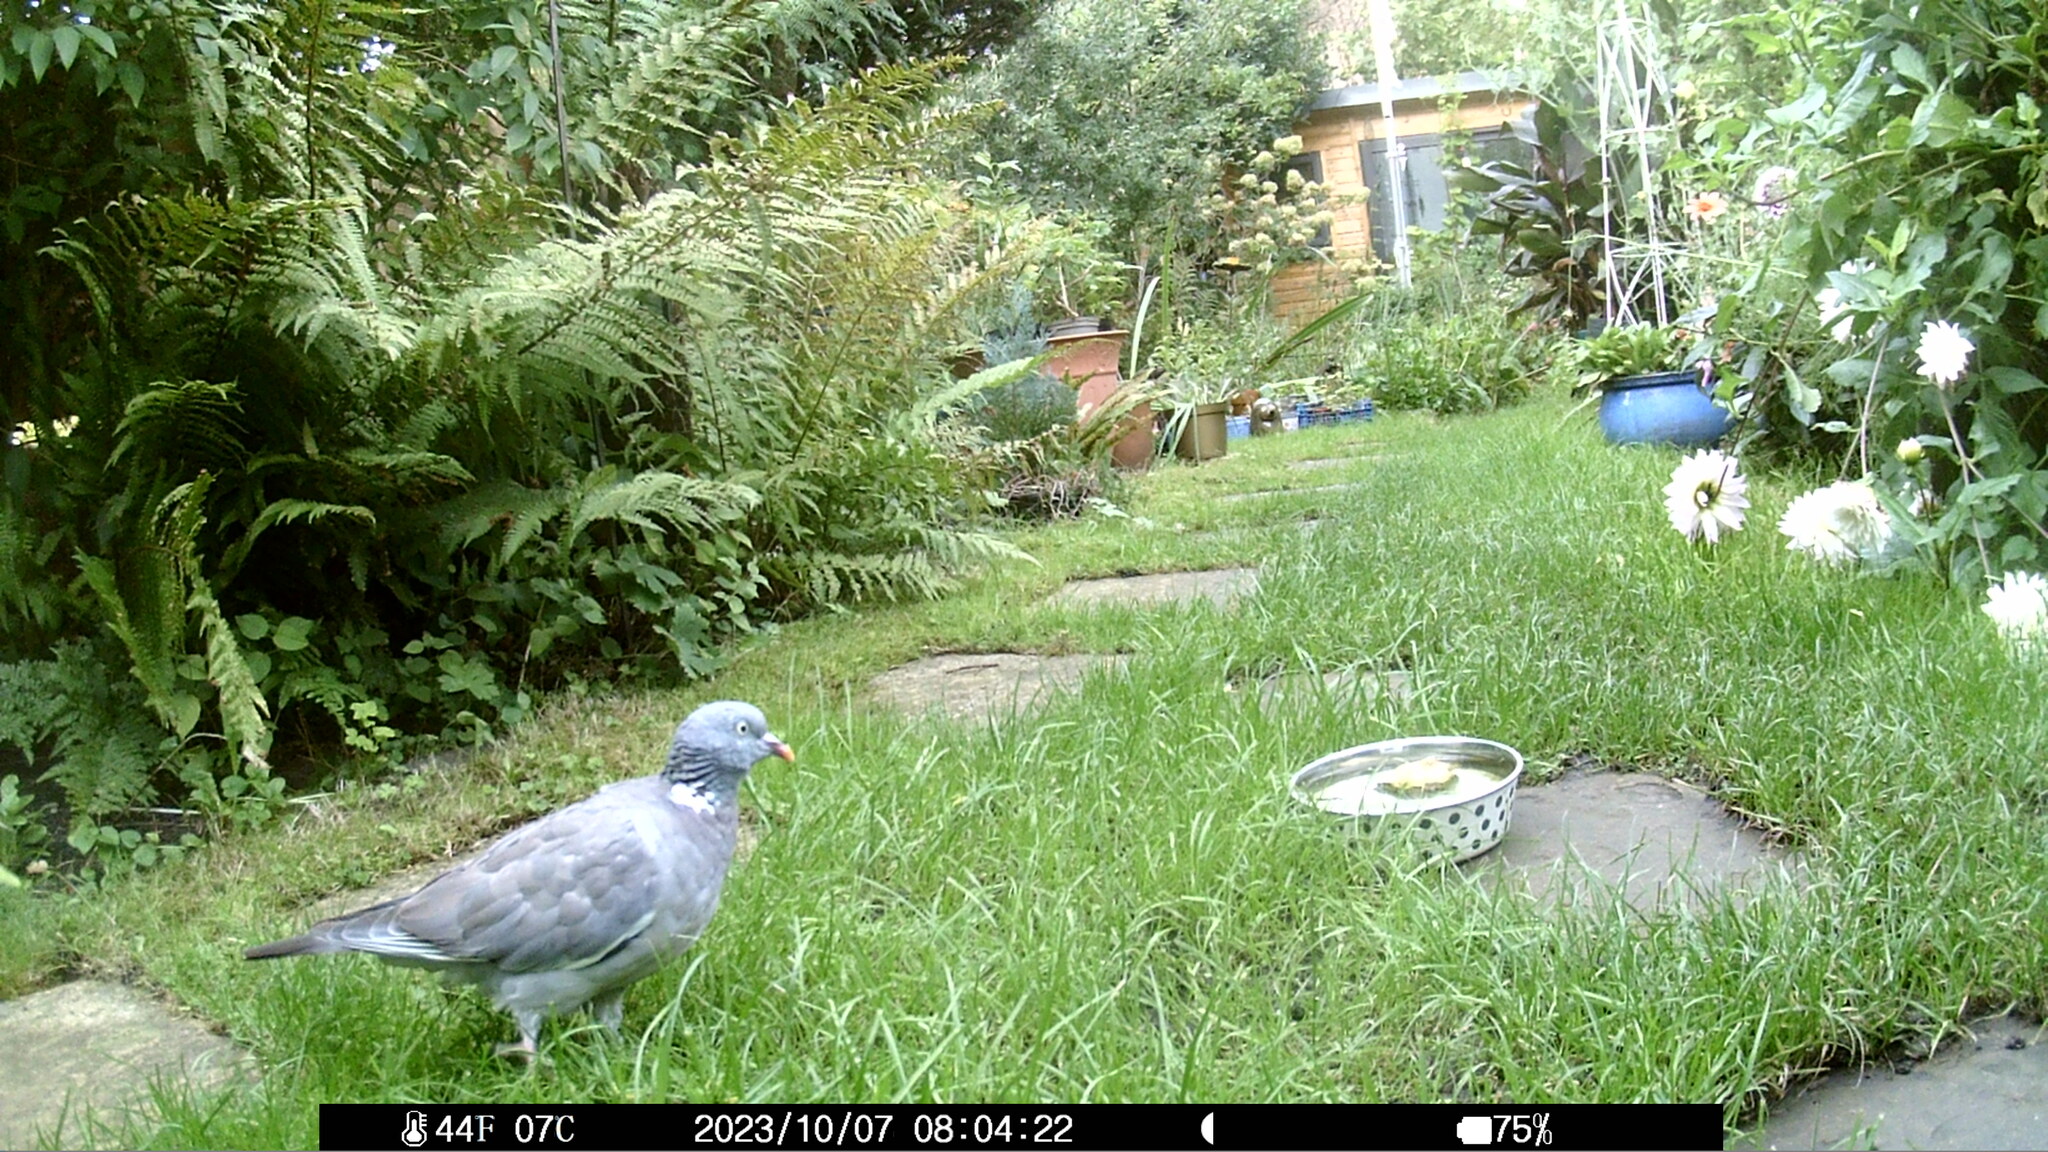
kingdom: Animalia
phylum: Chordata
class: Aves
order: Columbiformes
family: Columbidae
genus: Columba
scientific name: Columba palumbus
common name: Common wood pigeon
